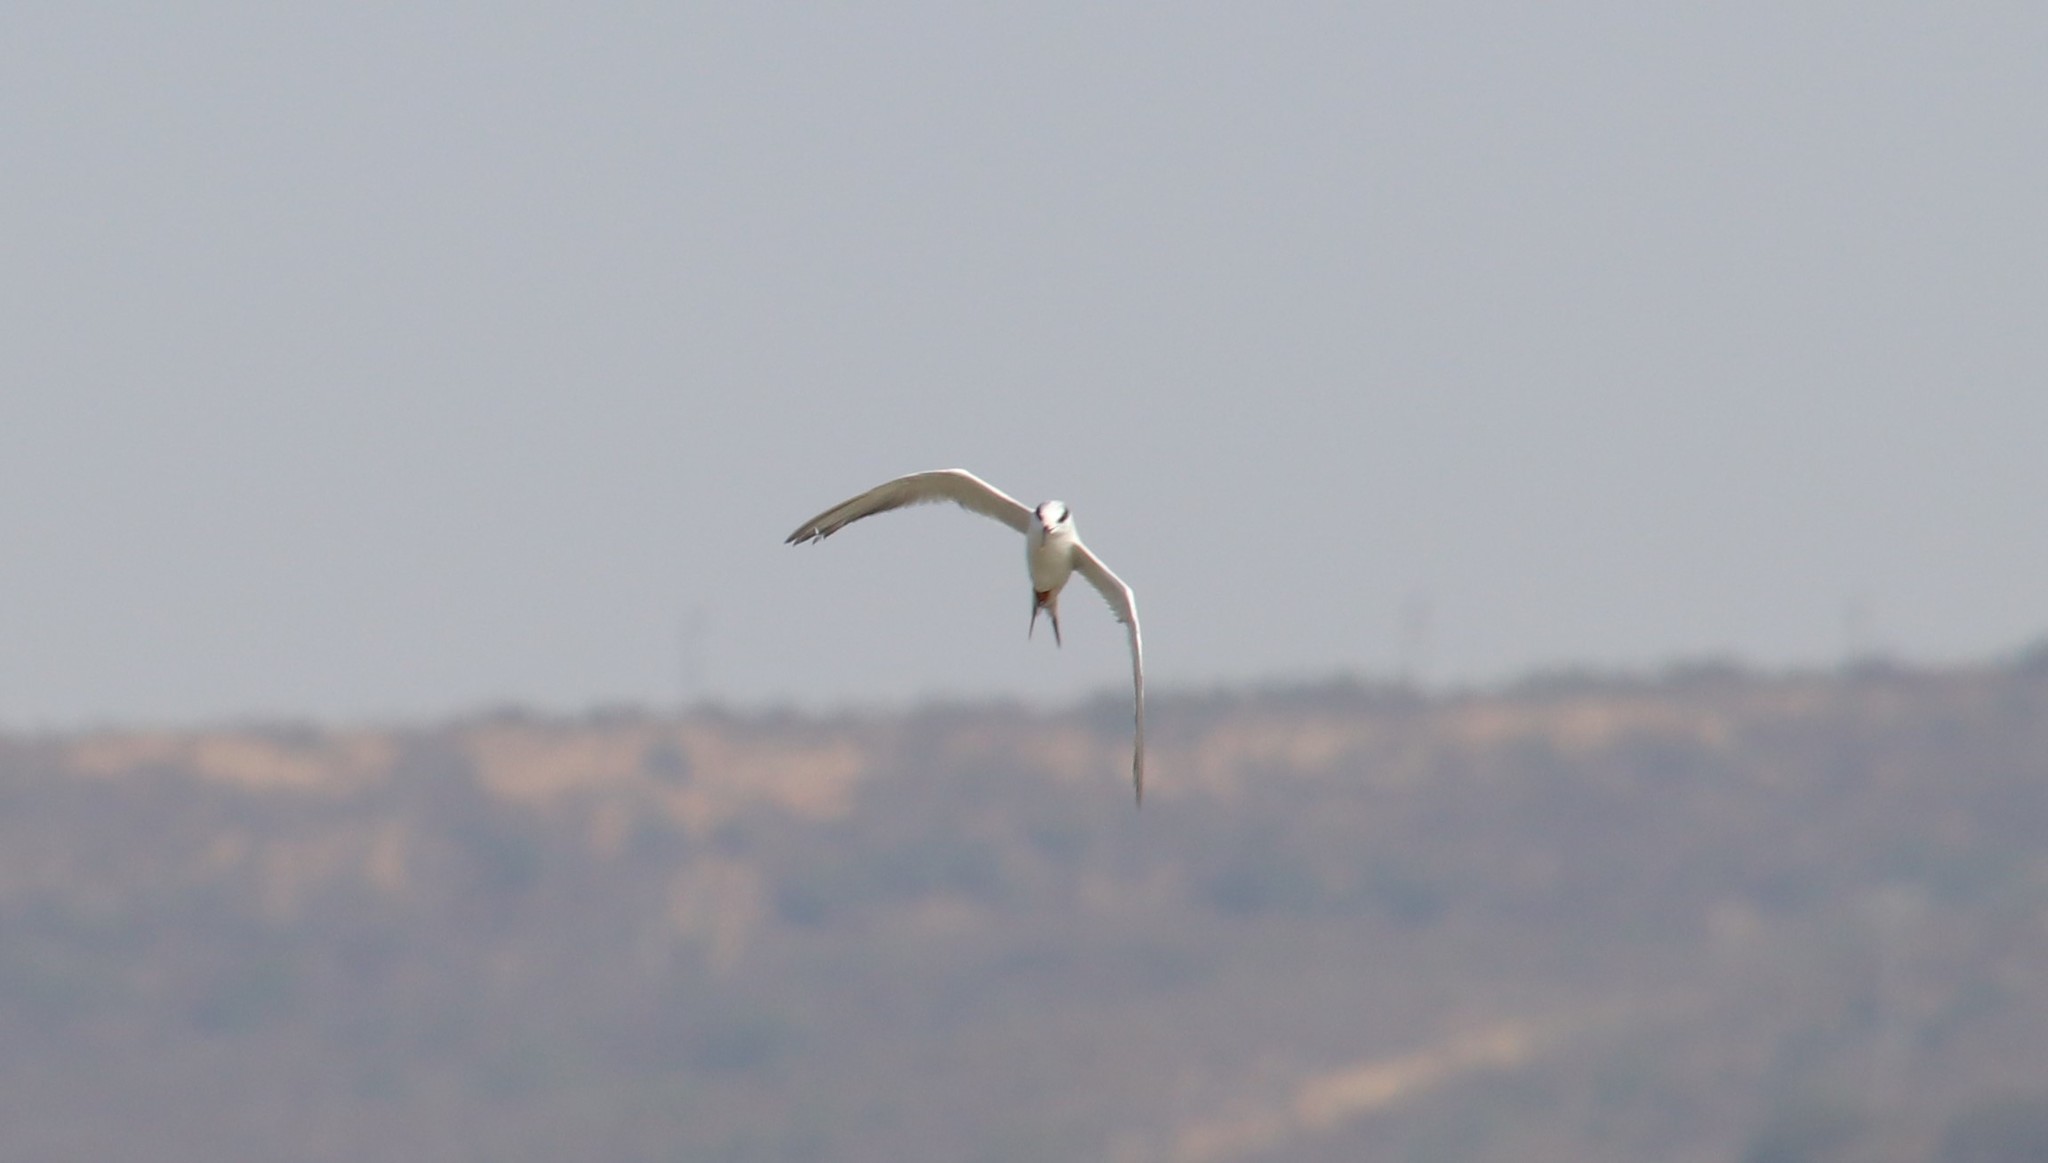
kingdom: Animalia
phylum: Chordata
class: Aves
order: Charadriiformes
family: Laridae
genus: Sterna
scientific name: Sterna forsteri
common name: Forster's tern
